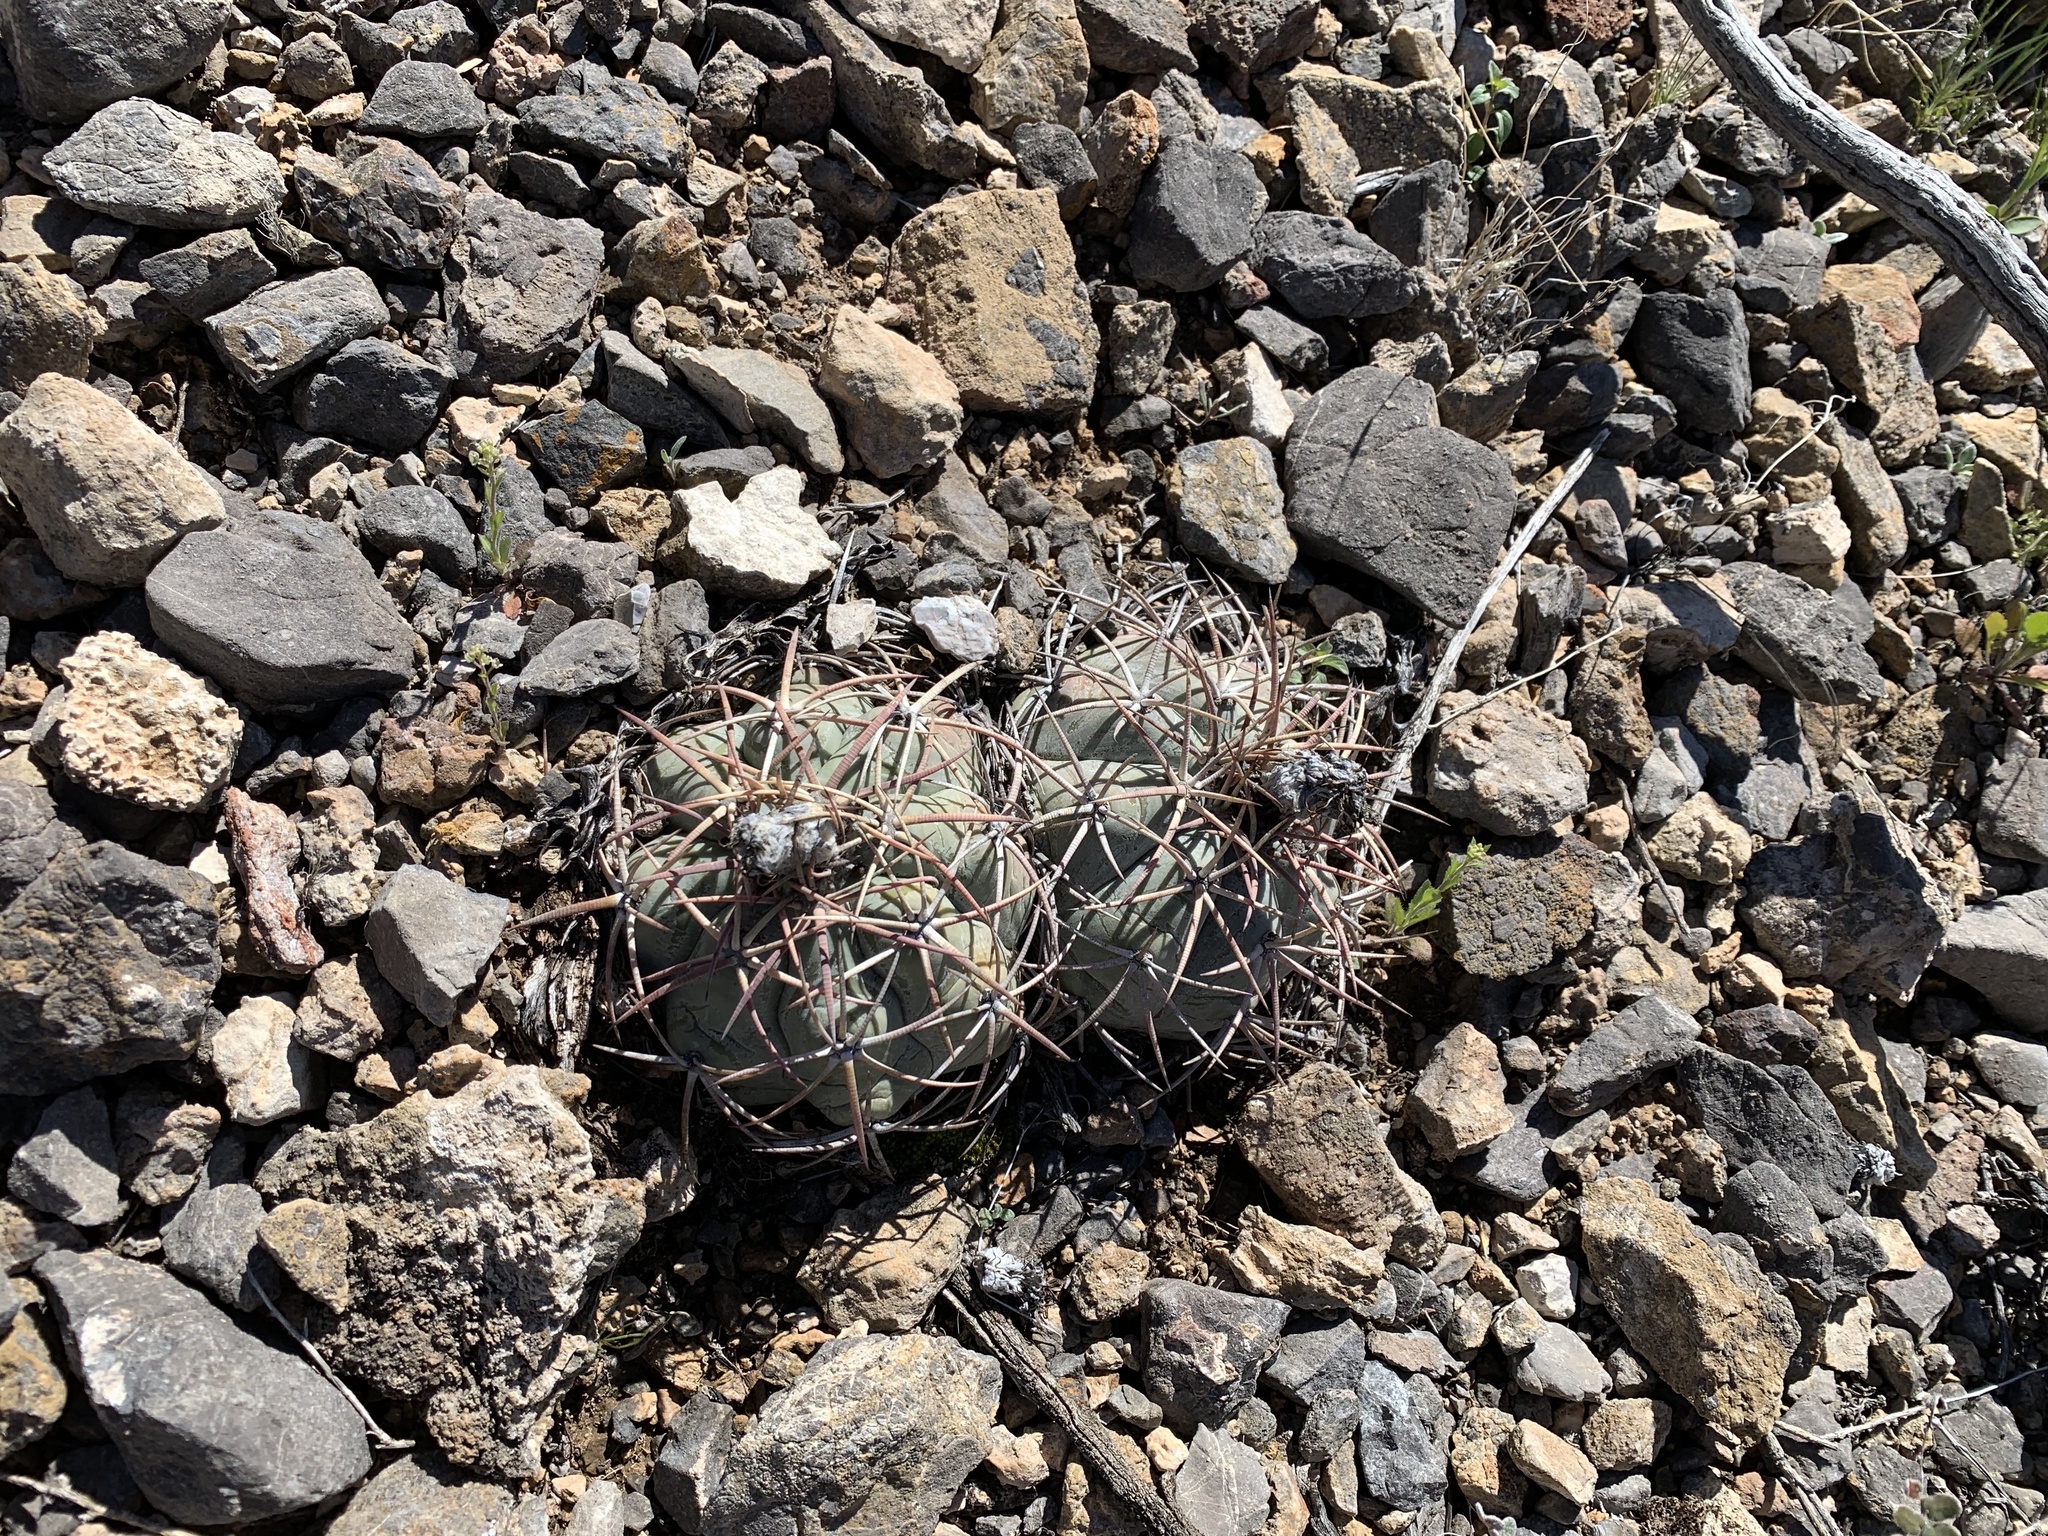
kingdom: Plantae
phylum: Tracheophyta
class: Magnoliopsida
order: Caryophyllales
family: Cactaceae
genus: Echinocactus
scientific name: Echinocactus horizonthalonius
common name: Devilshead
